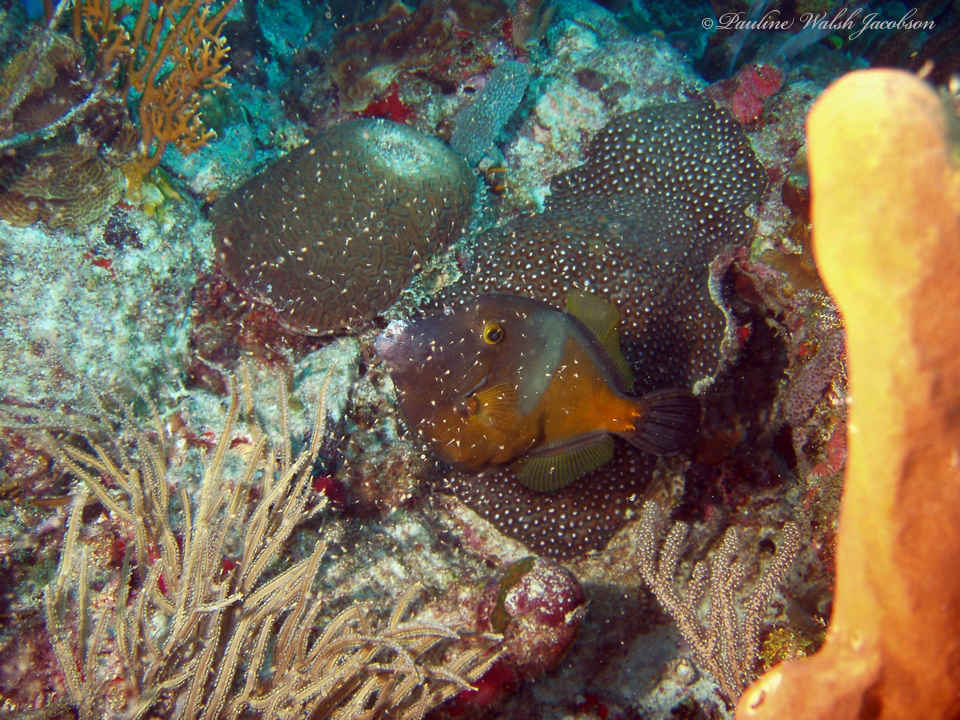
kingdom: Animalia
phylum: Chordata
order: Tetraodontiformes
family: Monacanthidae
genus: Cantherhines
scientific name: Cantherhines macrocerus
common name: Whitespotted filefish
